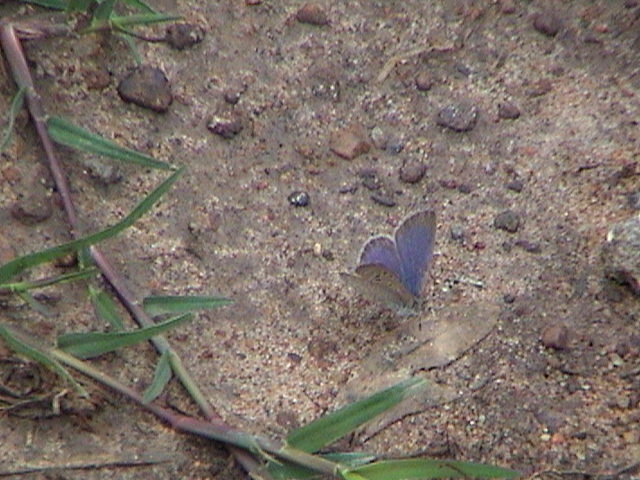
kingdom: Animalia
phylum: Arthropoda
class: Insecta
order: Lepidoptera
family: Lycaenidae
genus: Lampides
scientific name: Lampides boeticus
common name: Long-tailed blue
